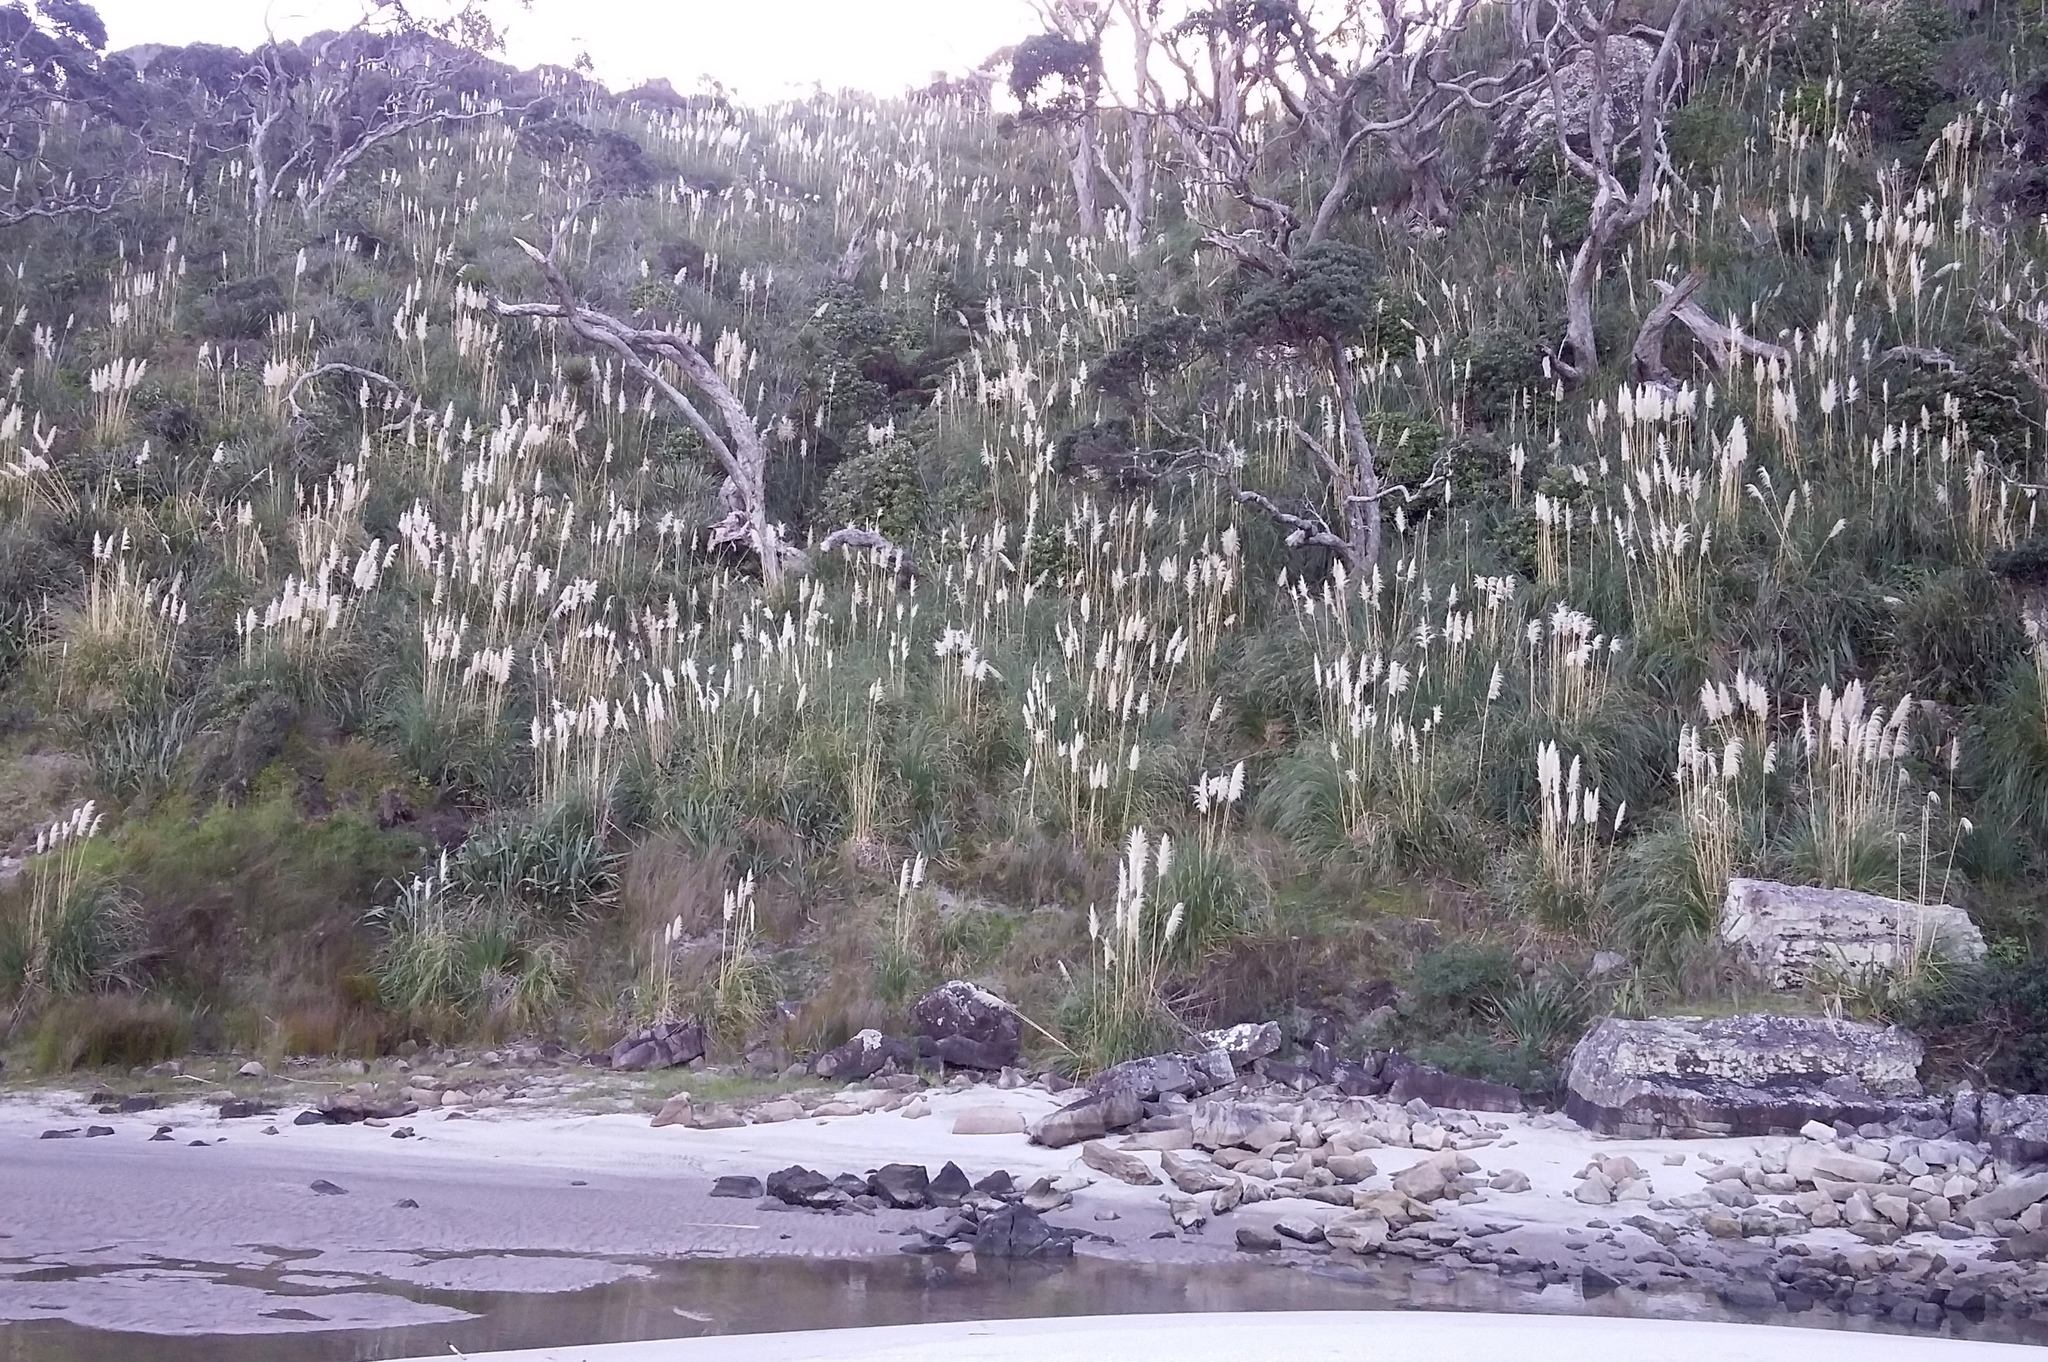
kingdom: Plantae
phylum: Tracheophyta
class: Liliopsida
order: Poales
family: Poaceae
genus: Cortaderia
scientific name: Cortaderia selloana
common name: Uruguayan pampas grass
